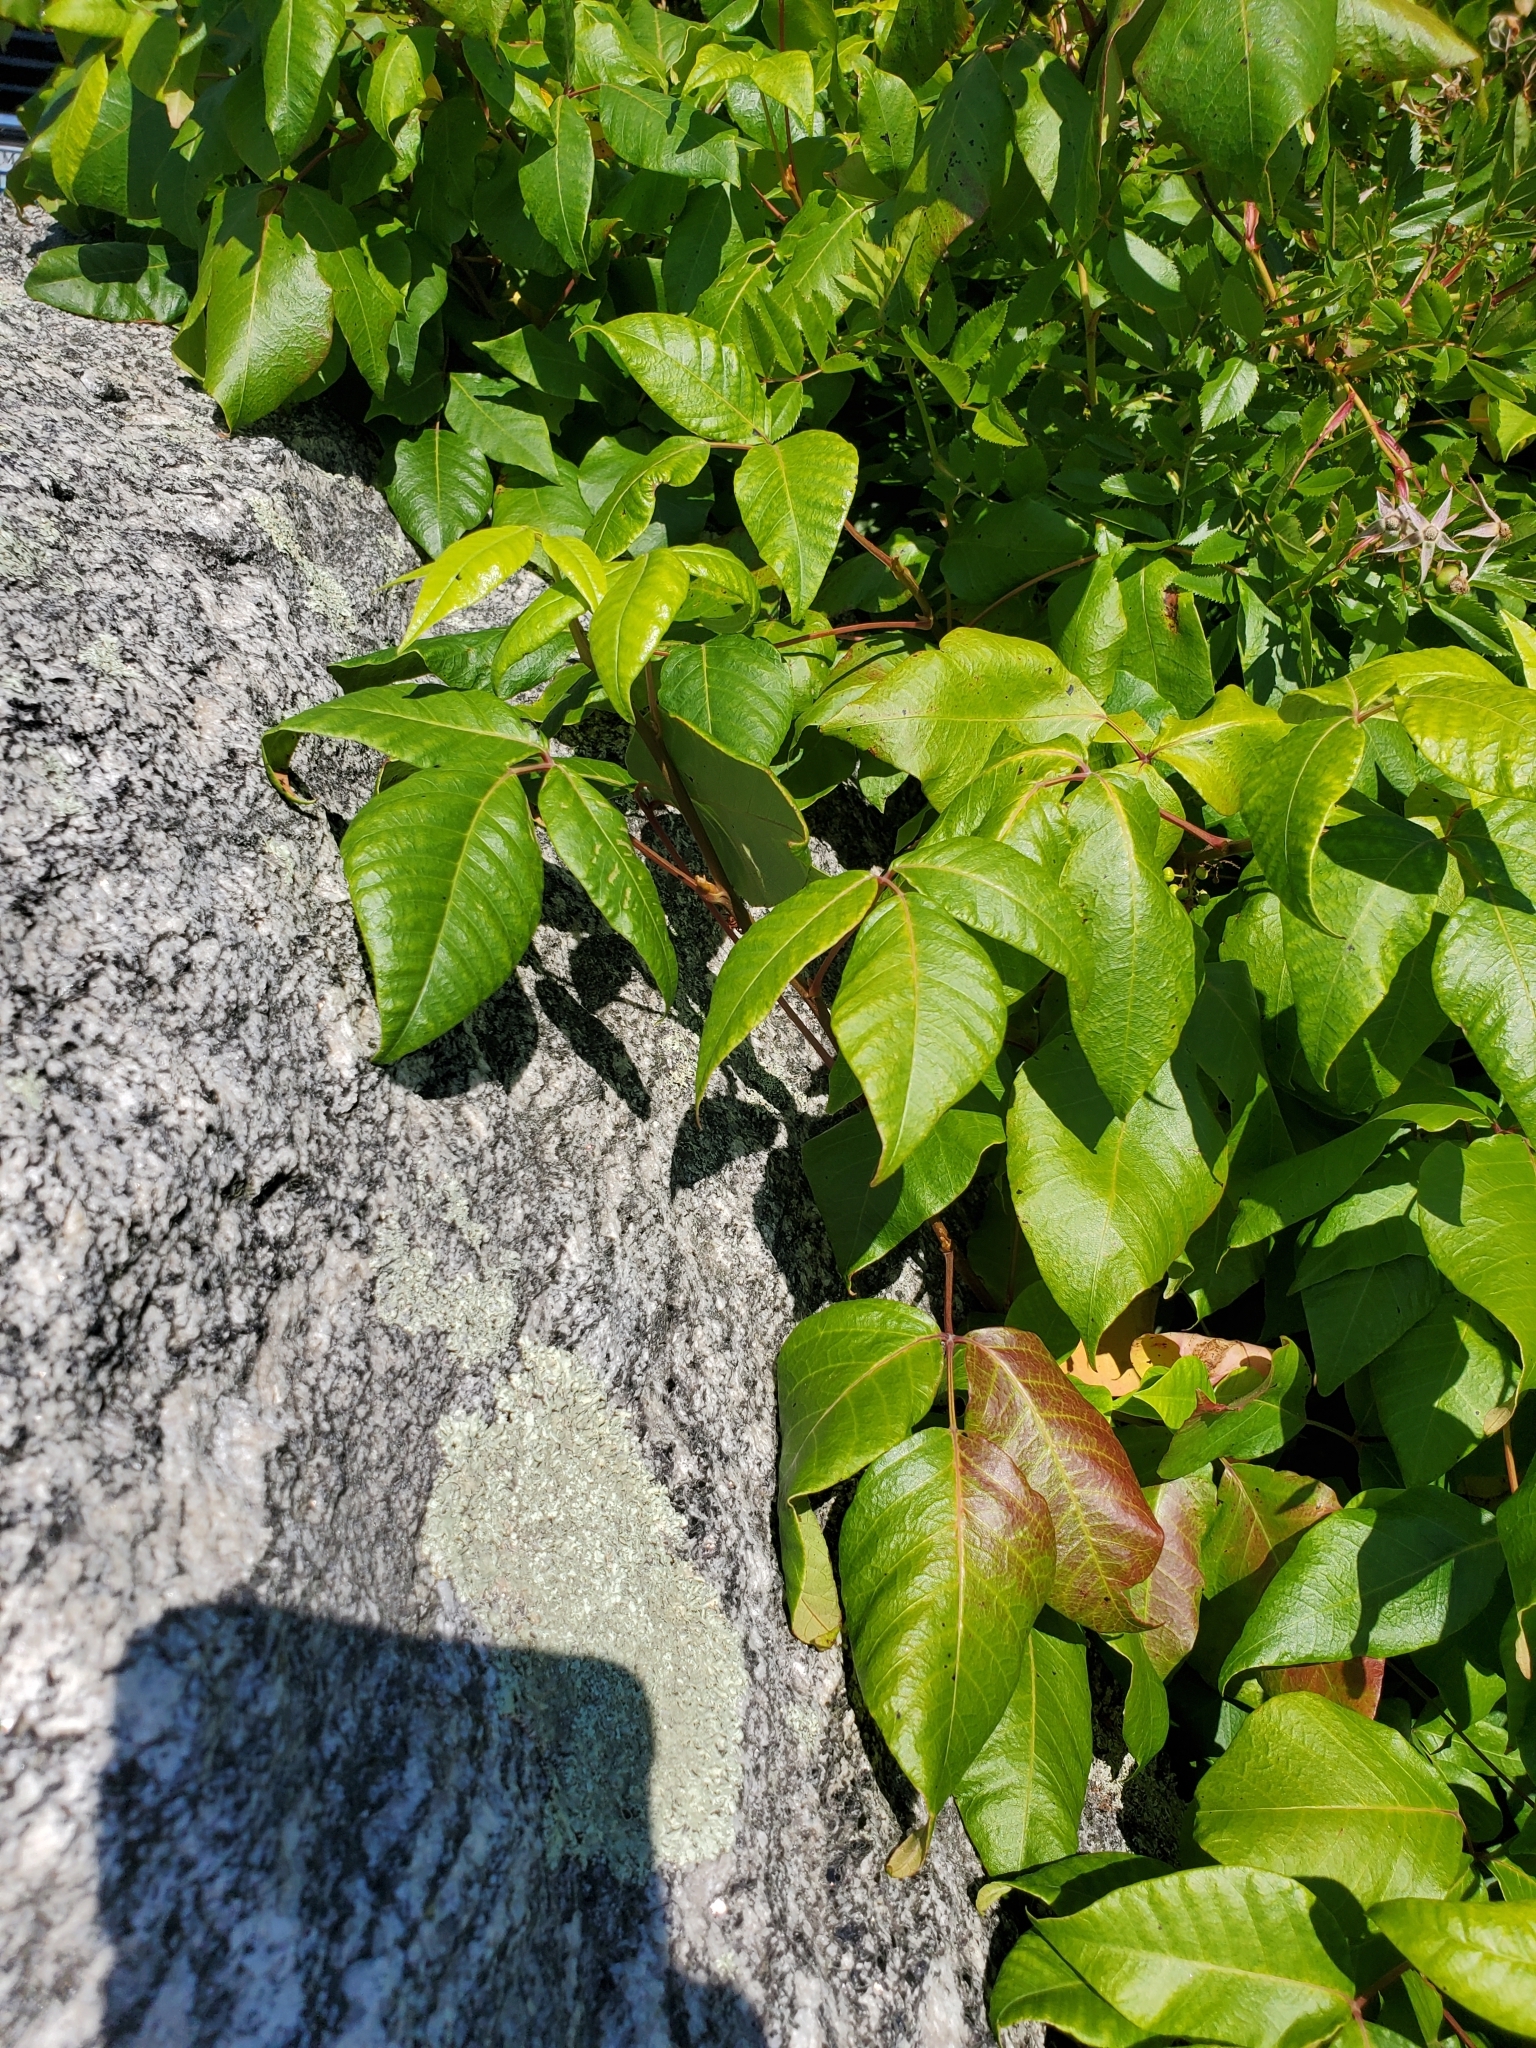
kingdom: Plantae
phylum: Tracheophyta
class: Magnoliopsida
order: Sapindales
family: Anacardiaceae
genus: Toxicodendron
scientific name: Toxicodendron radicans
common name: Poison ivy
